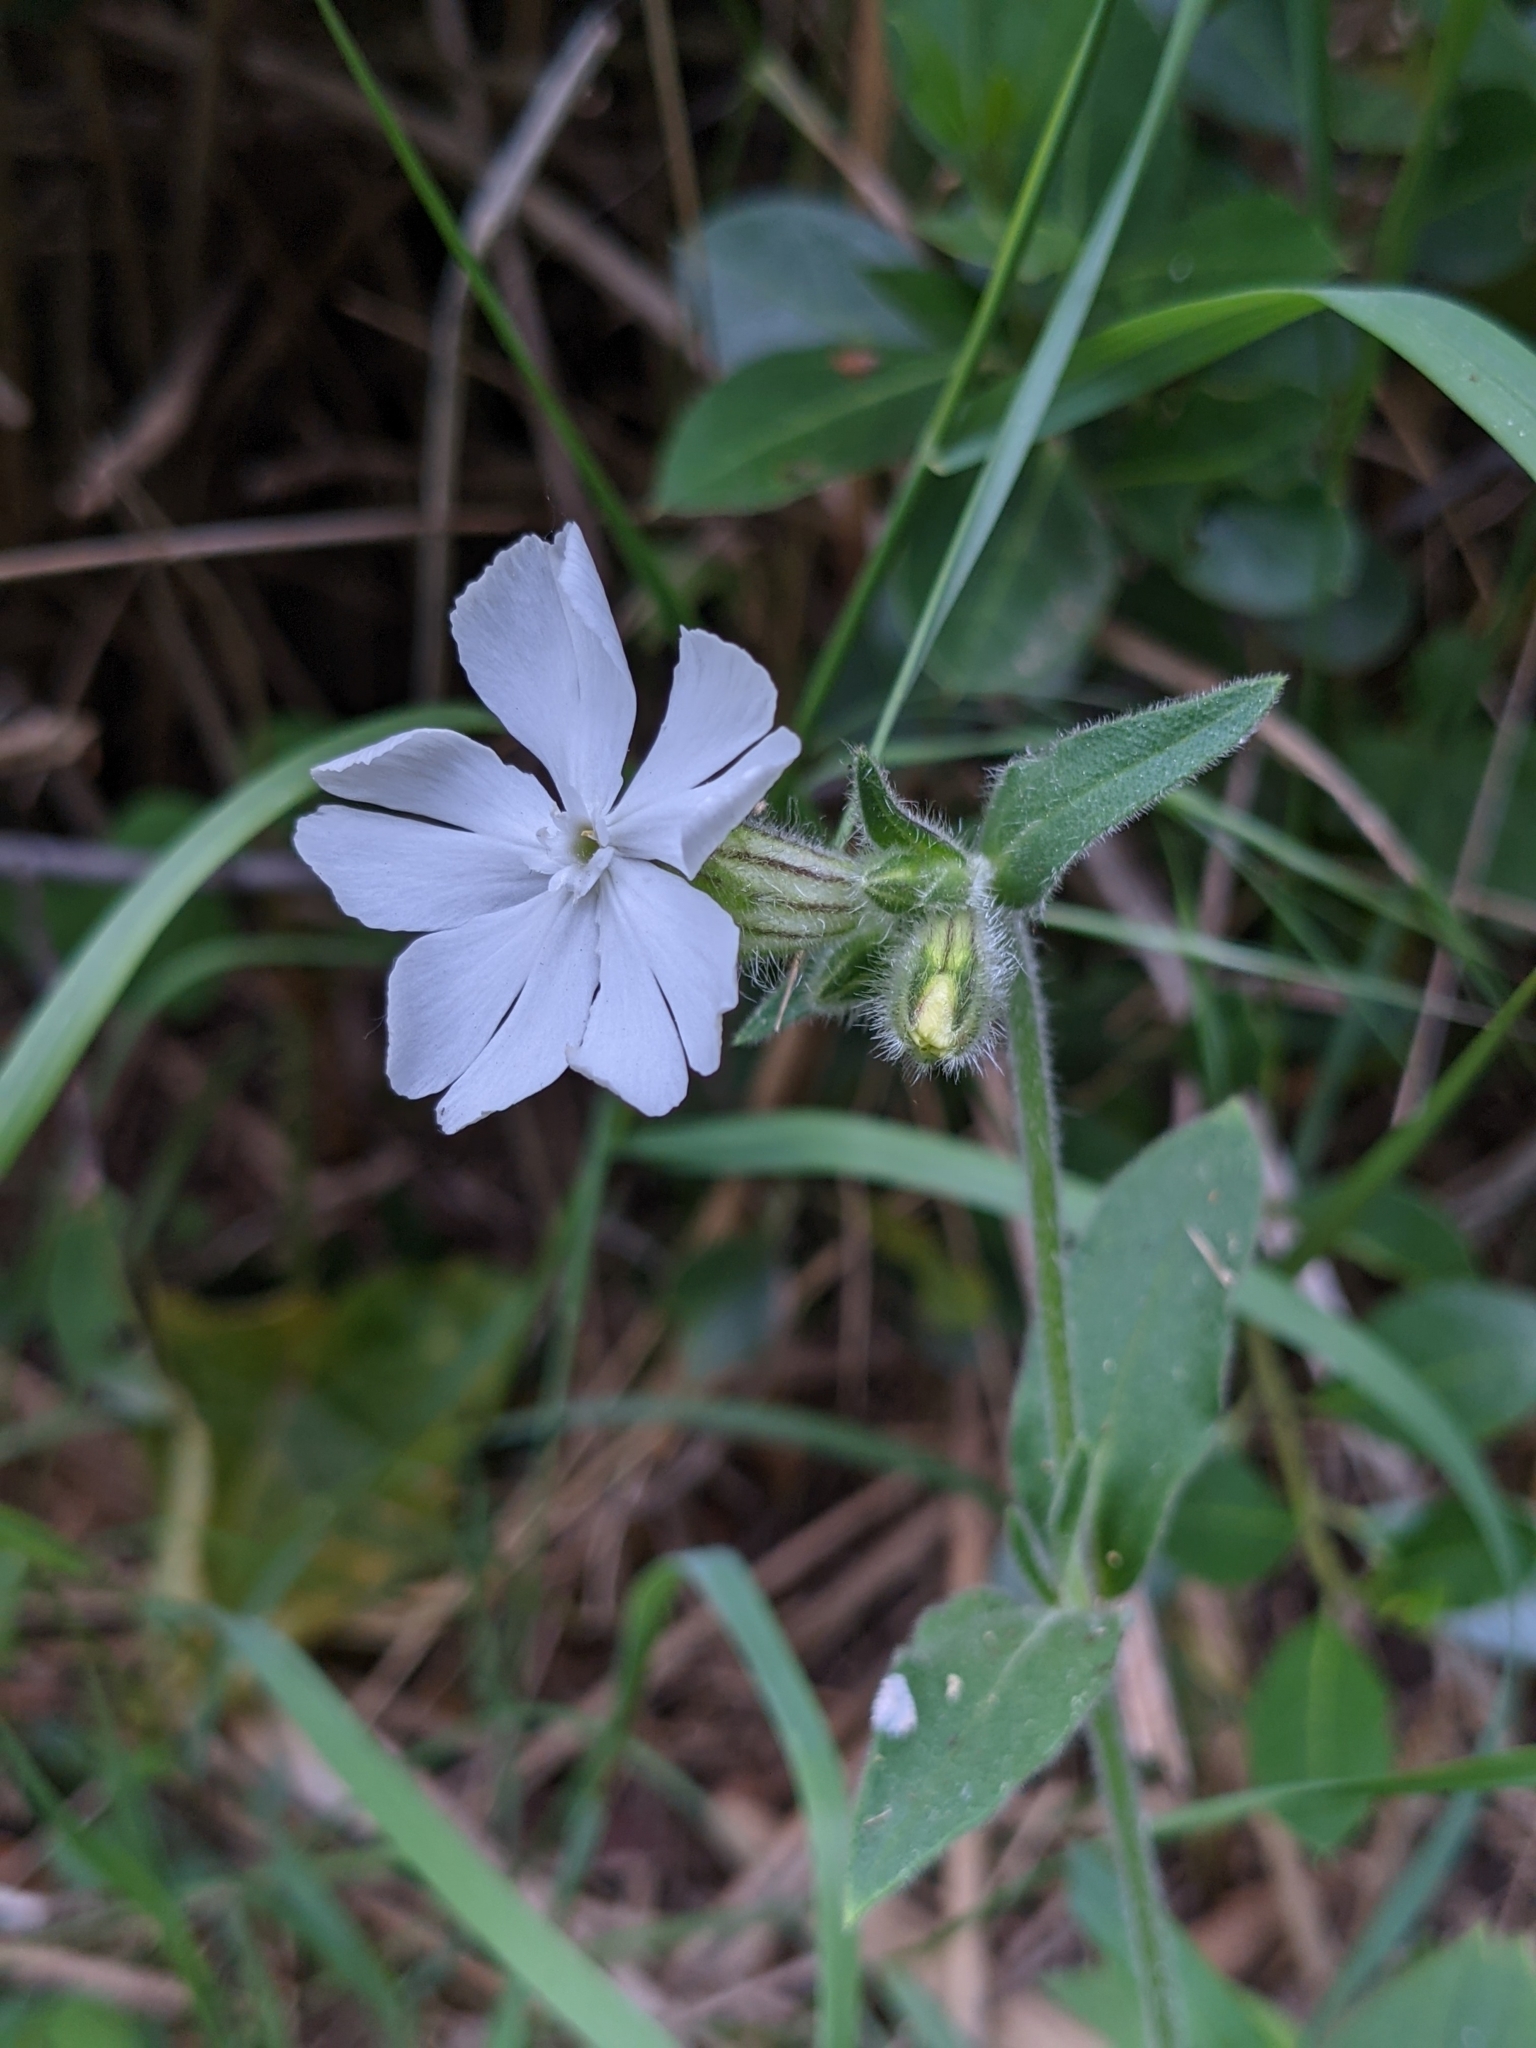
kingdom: Plantae
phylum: Tracheophyta
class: Magnoliopsida
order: Caryophyllales
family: Caryophyllaceae
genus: Silene
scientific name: Silene latifolia
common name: White campion
